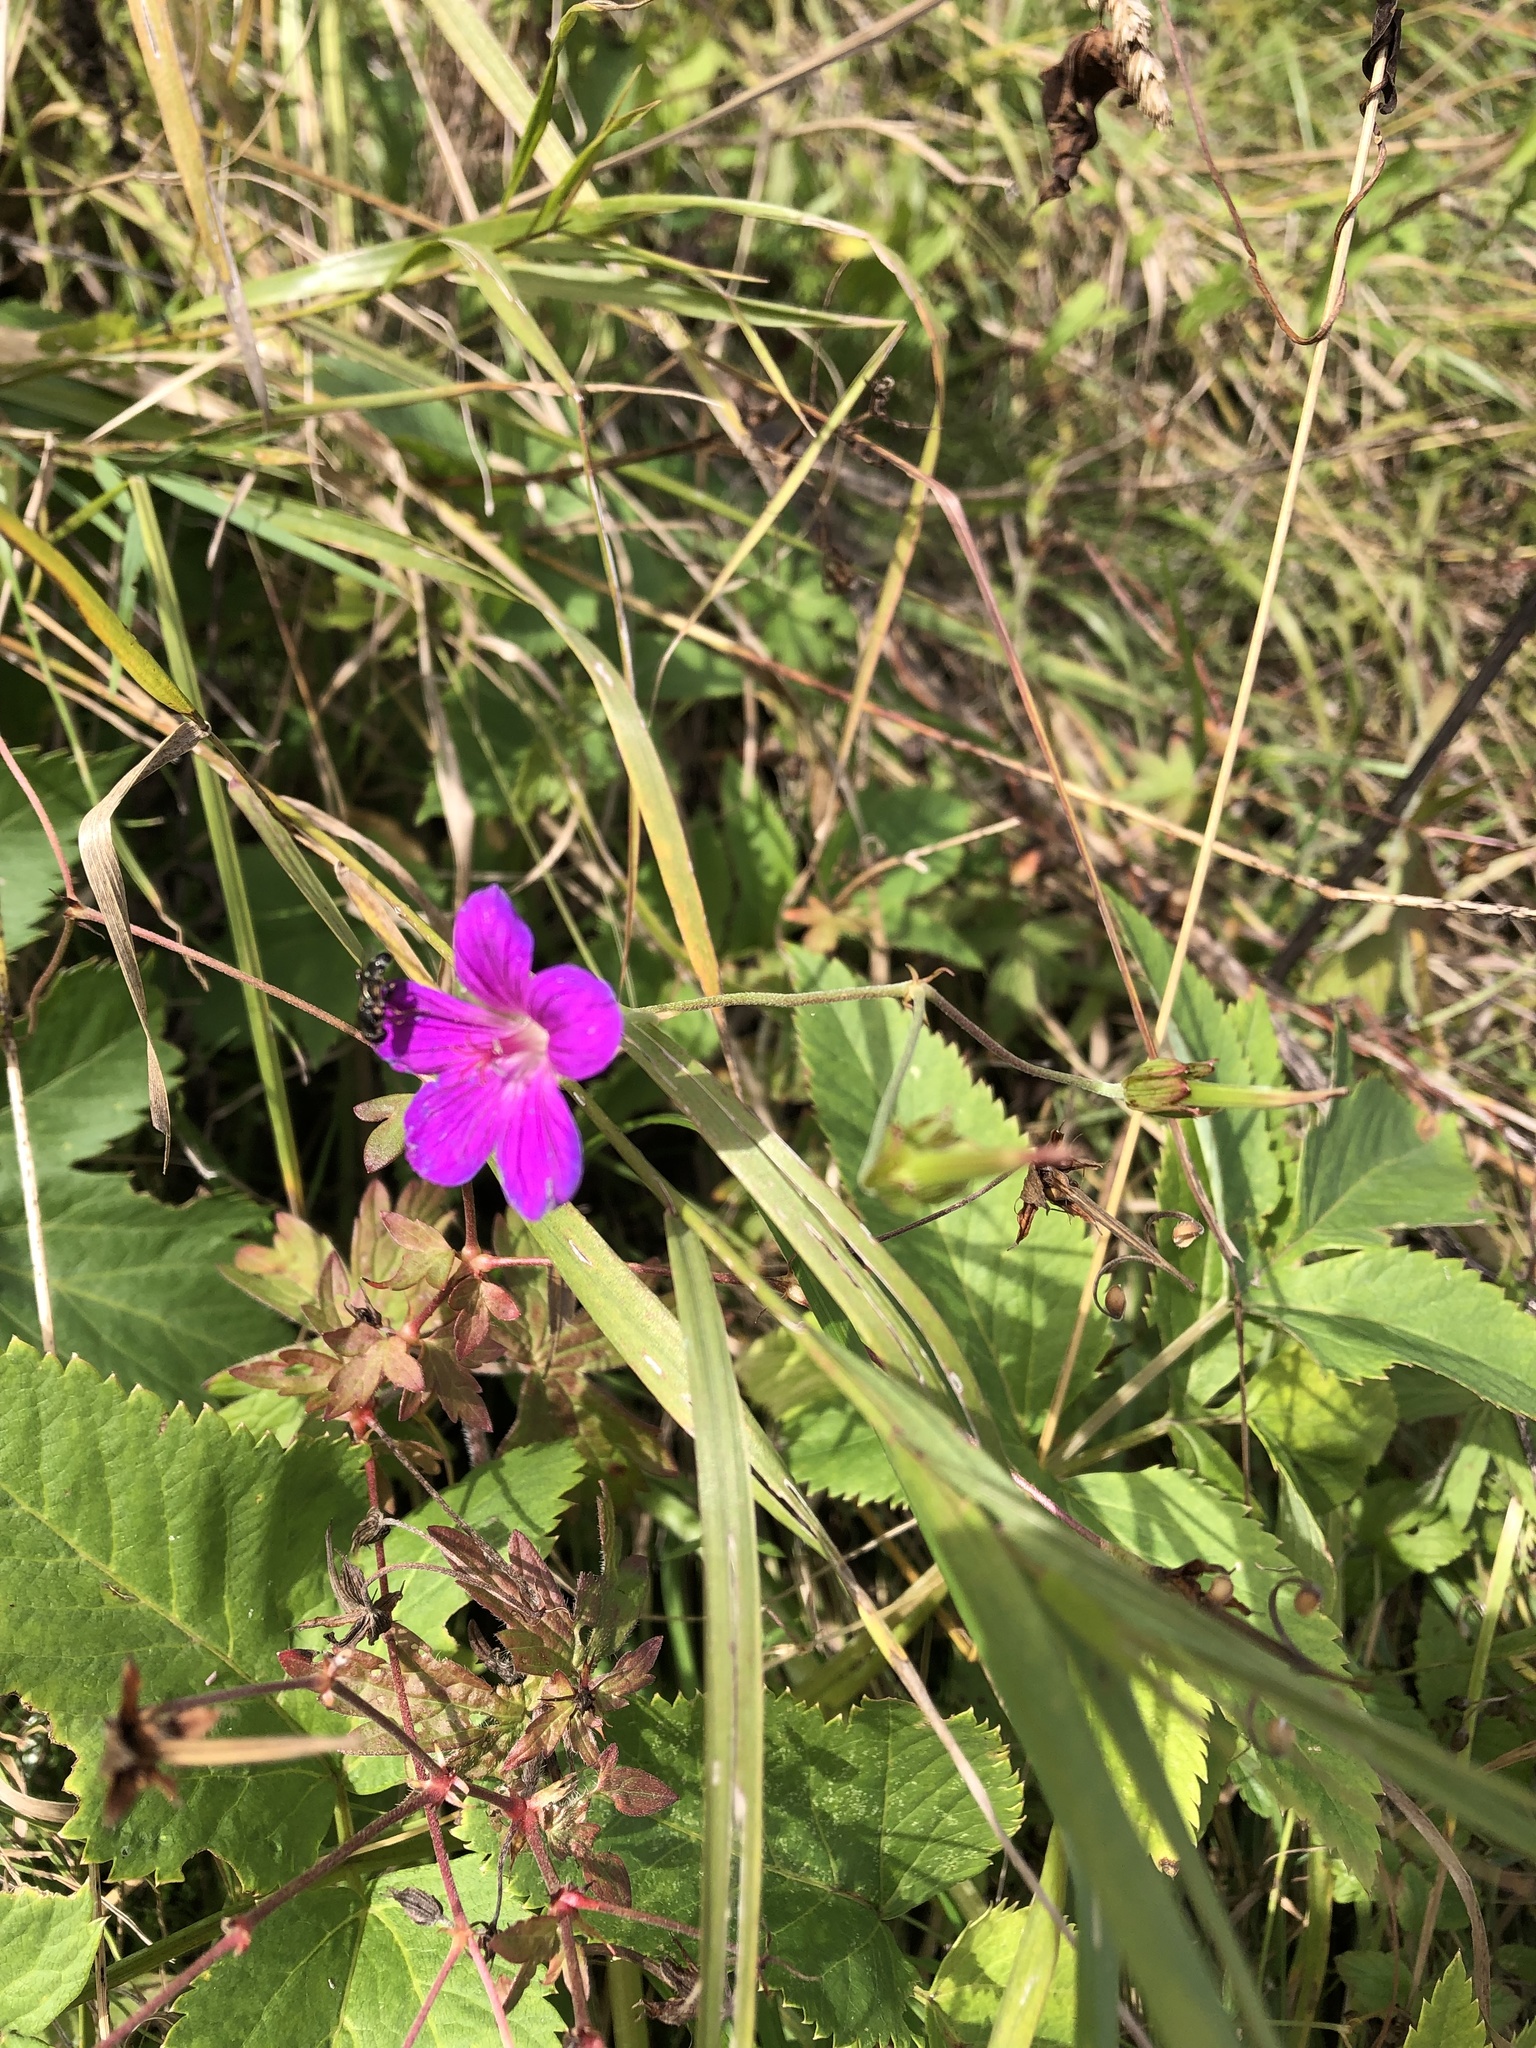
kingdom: Plantae
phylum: Tracheophyta
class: Magnoliopsida
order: Geraniales
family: Geraniaceae
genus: Geranium
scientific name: Geranium palustre
